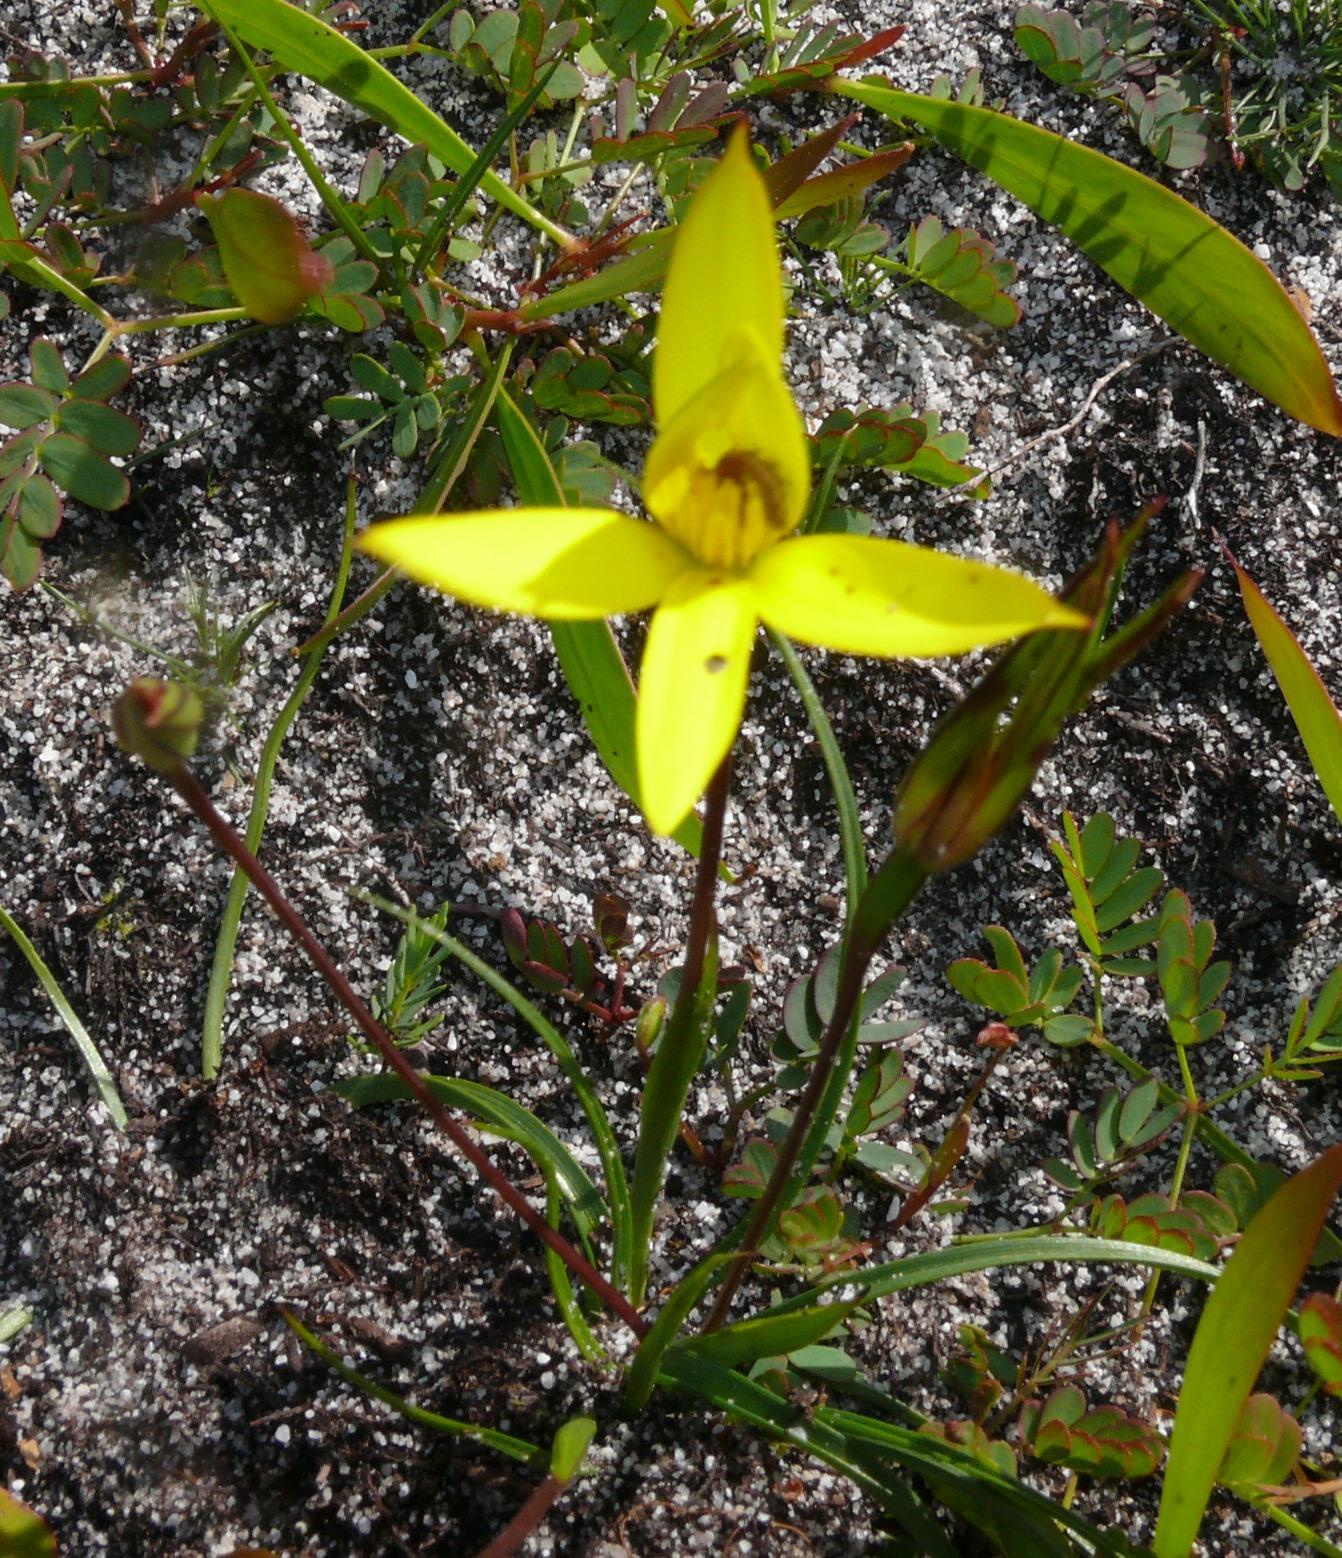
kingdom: Plantae
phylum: Tracheophyta
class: Liliopsida
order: Asparagales
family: Hypoxidaceae
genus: Pauridia
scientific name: Pauridia capensis
